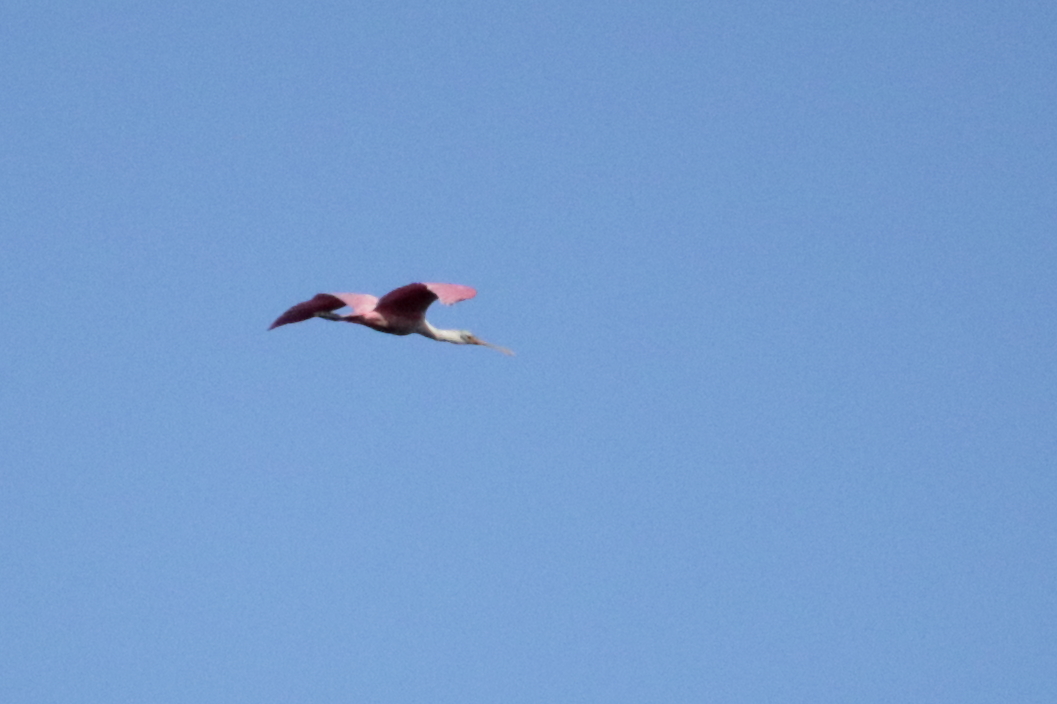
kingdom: Animalia
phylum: Chordata
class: Aves
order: Pelecaniformes
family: Threskiornithidae
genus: Platalea
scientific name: Platalea ajaja
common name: Roseate spoonbill
